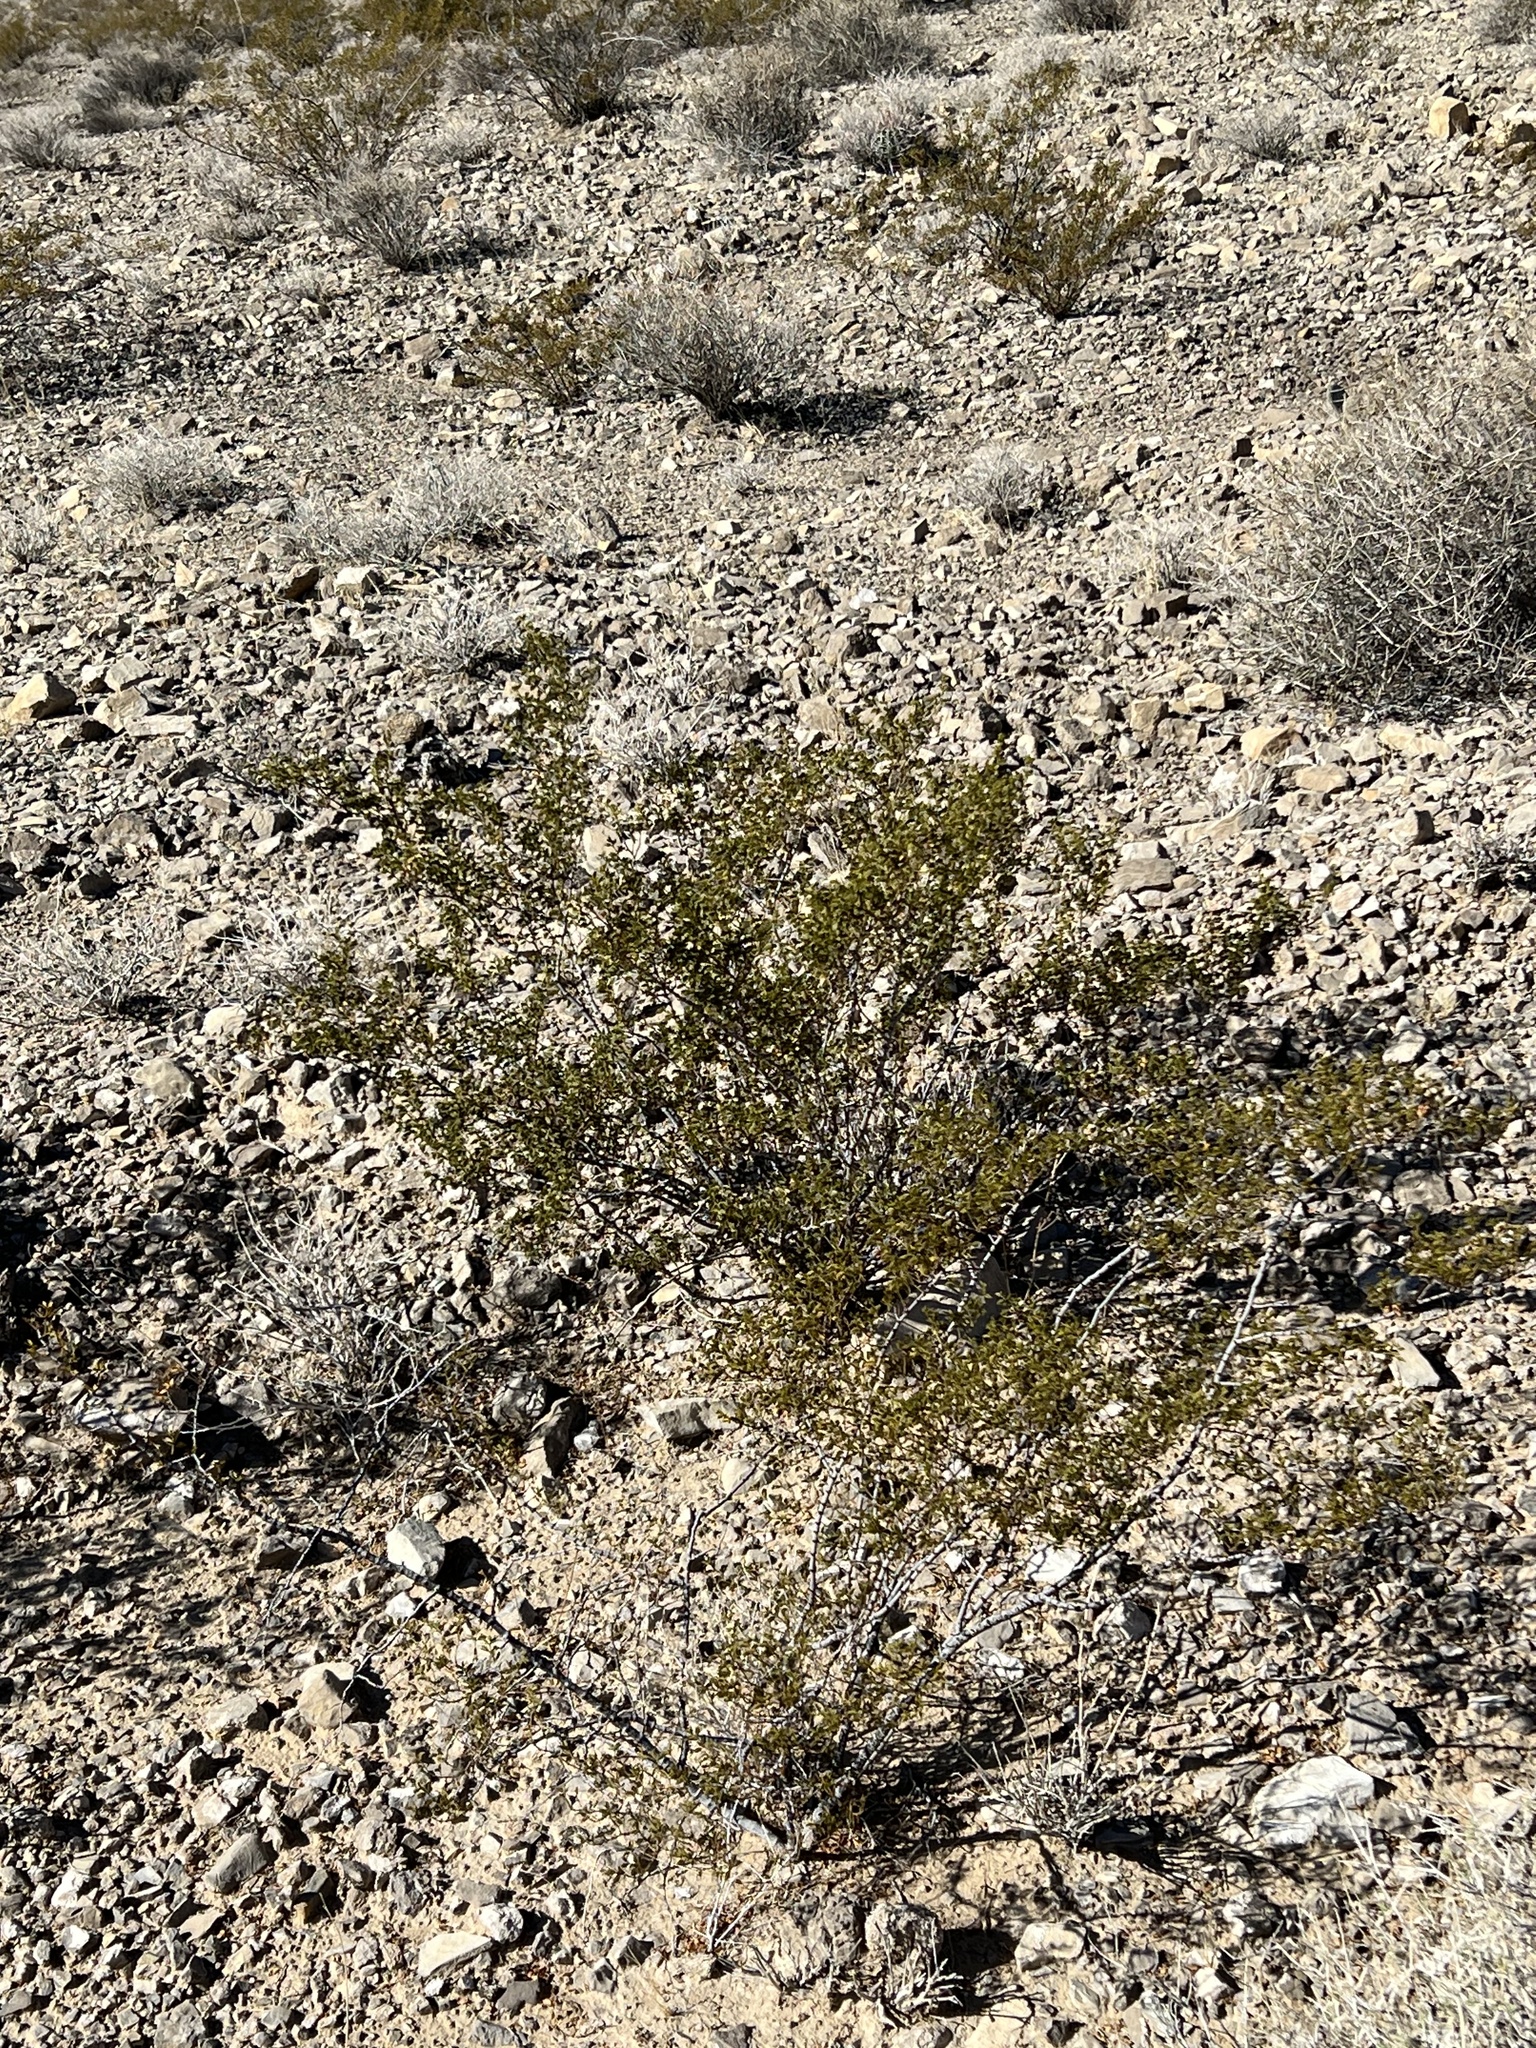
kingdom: Plantae
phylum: Tracheophyta
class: Magnoliopsida
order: Zygophyllales
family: Zygophyllaceae
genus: Larrea
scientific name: Larrea tridentata
